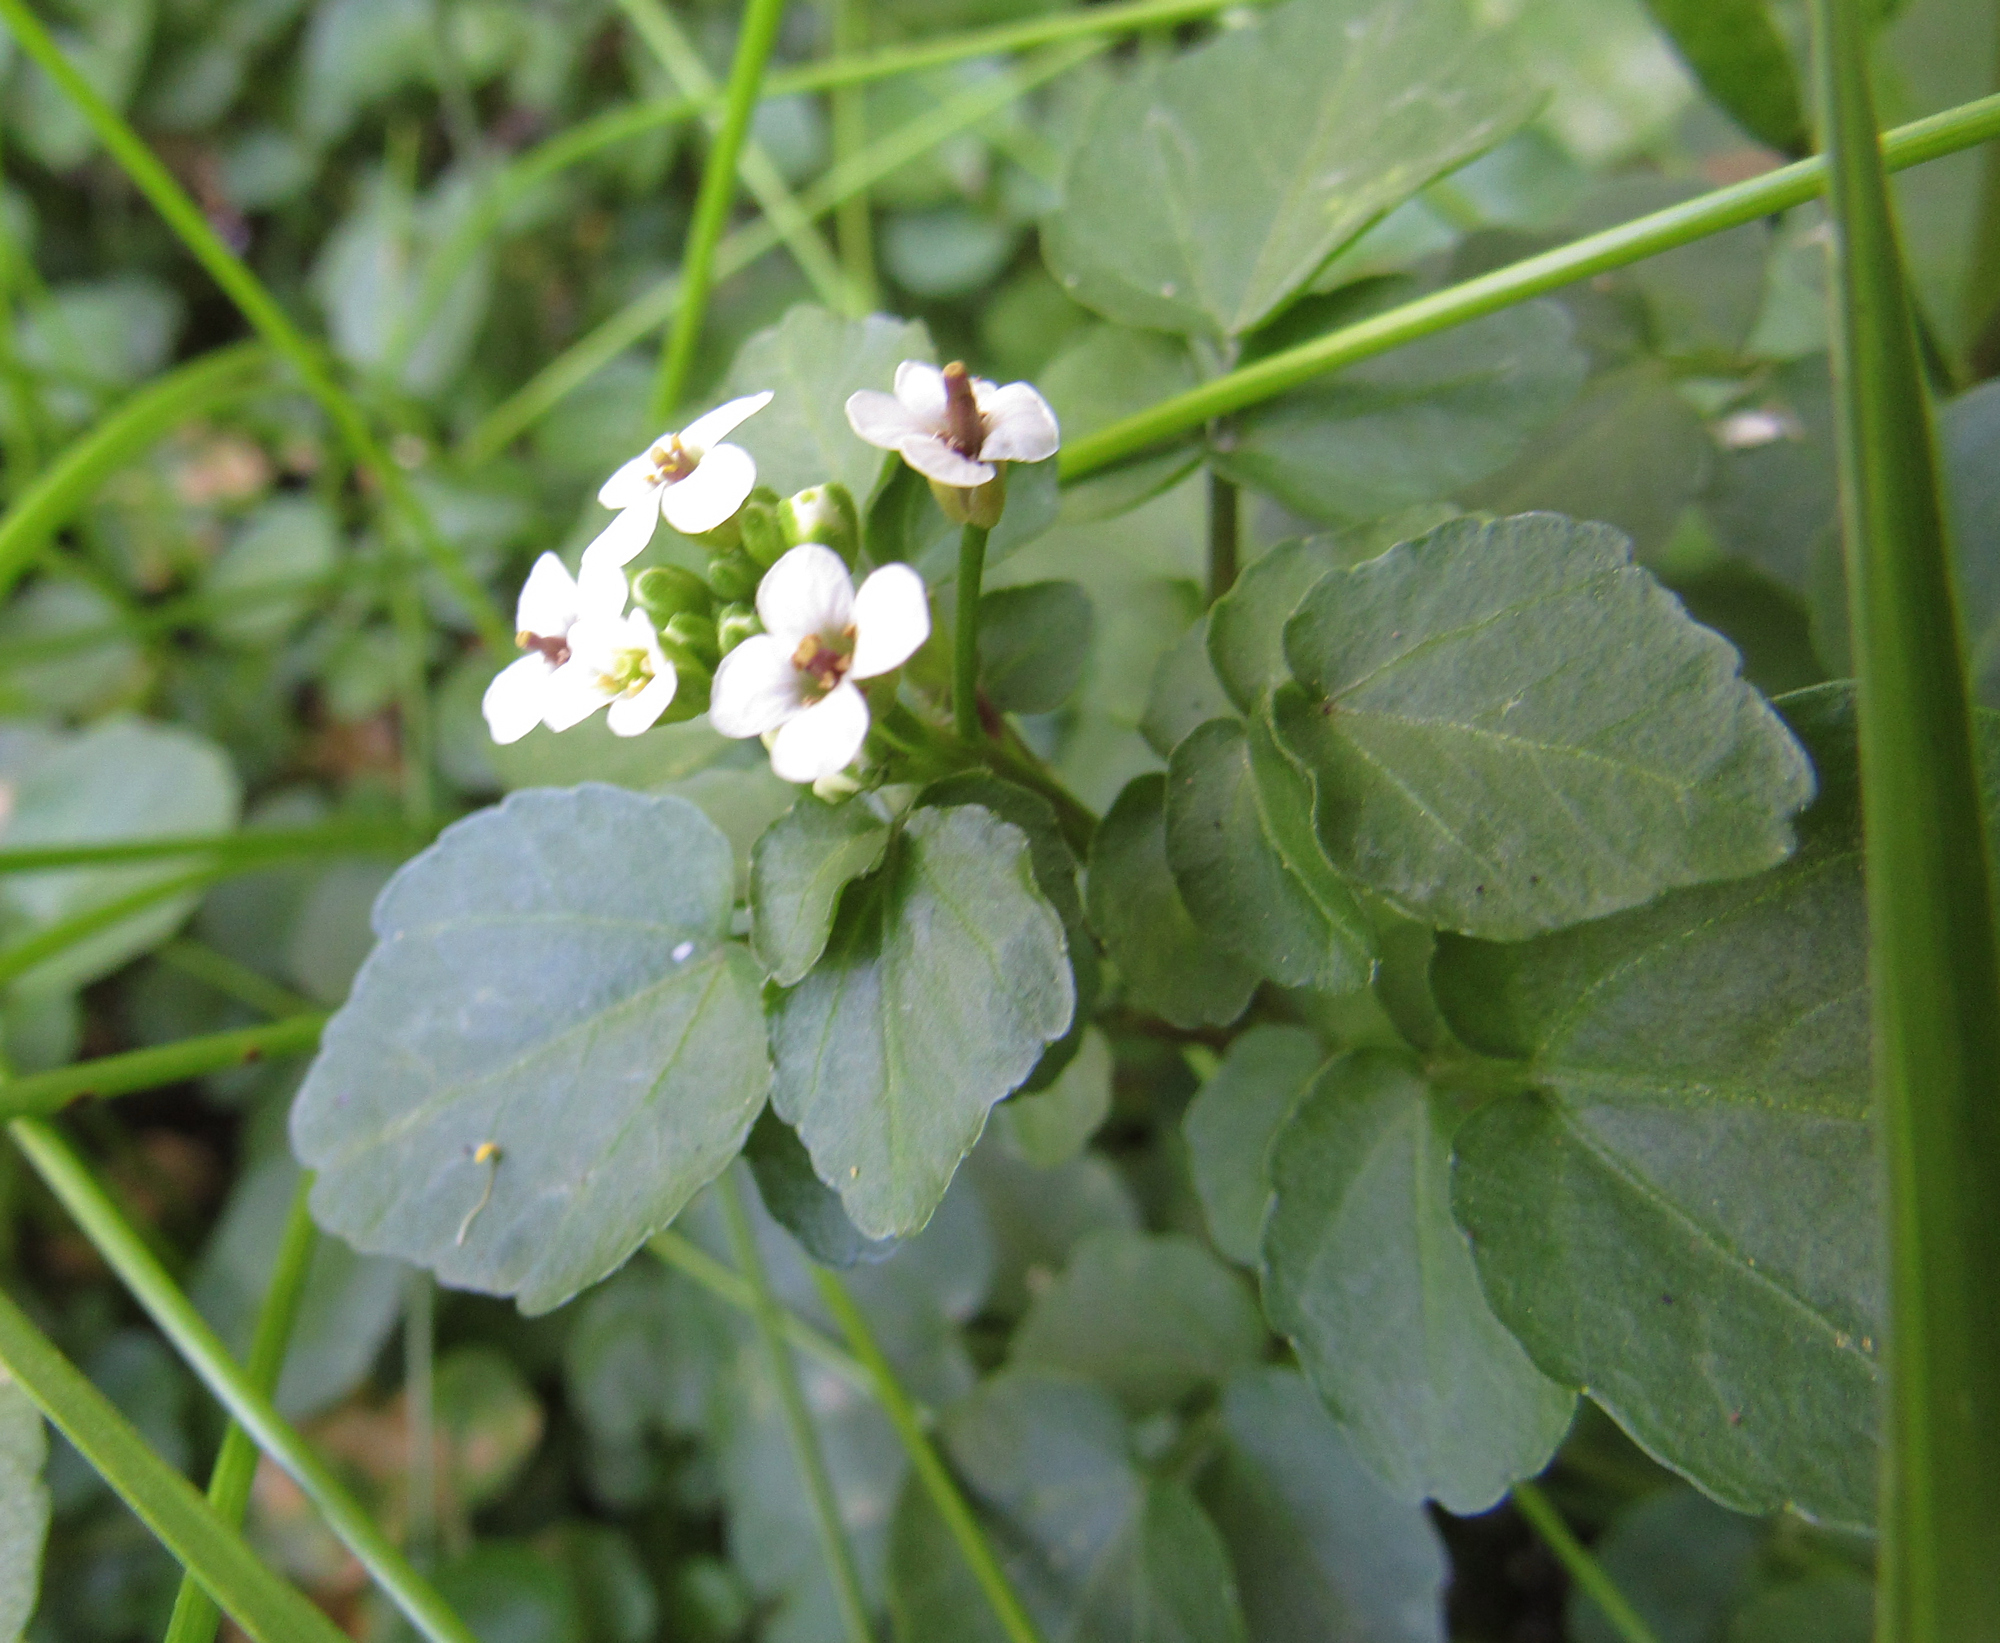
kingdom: Plantae
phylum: Tracheophyta
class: Magnoliopsida
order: Brassicales
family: Brassicaceae
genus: Nasturtium
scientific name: Nasturtium officinale
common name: Watercress
